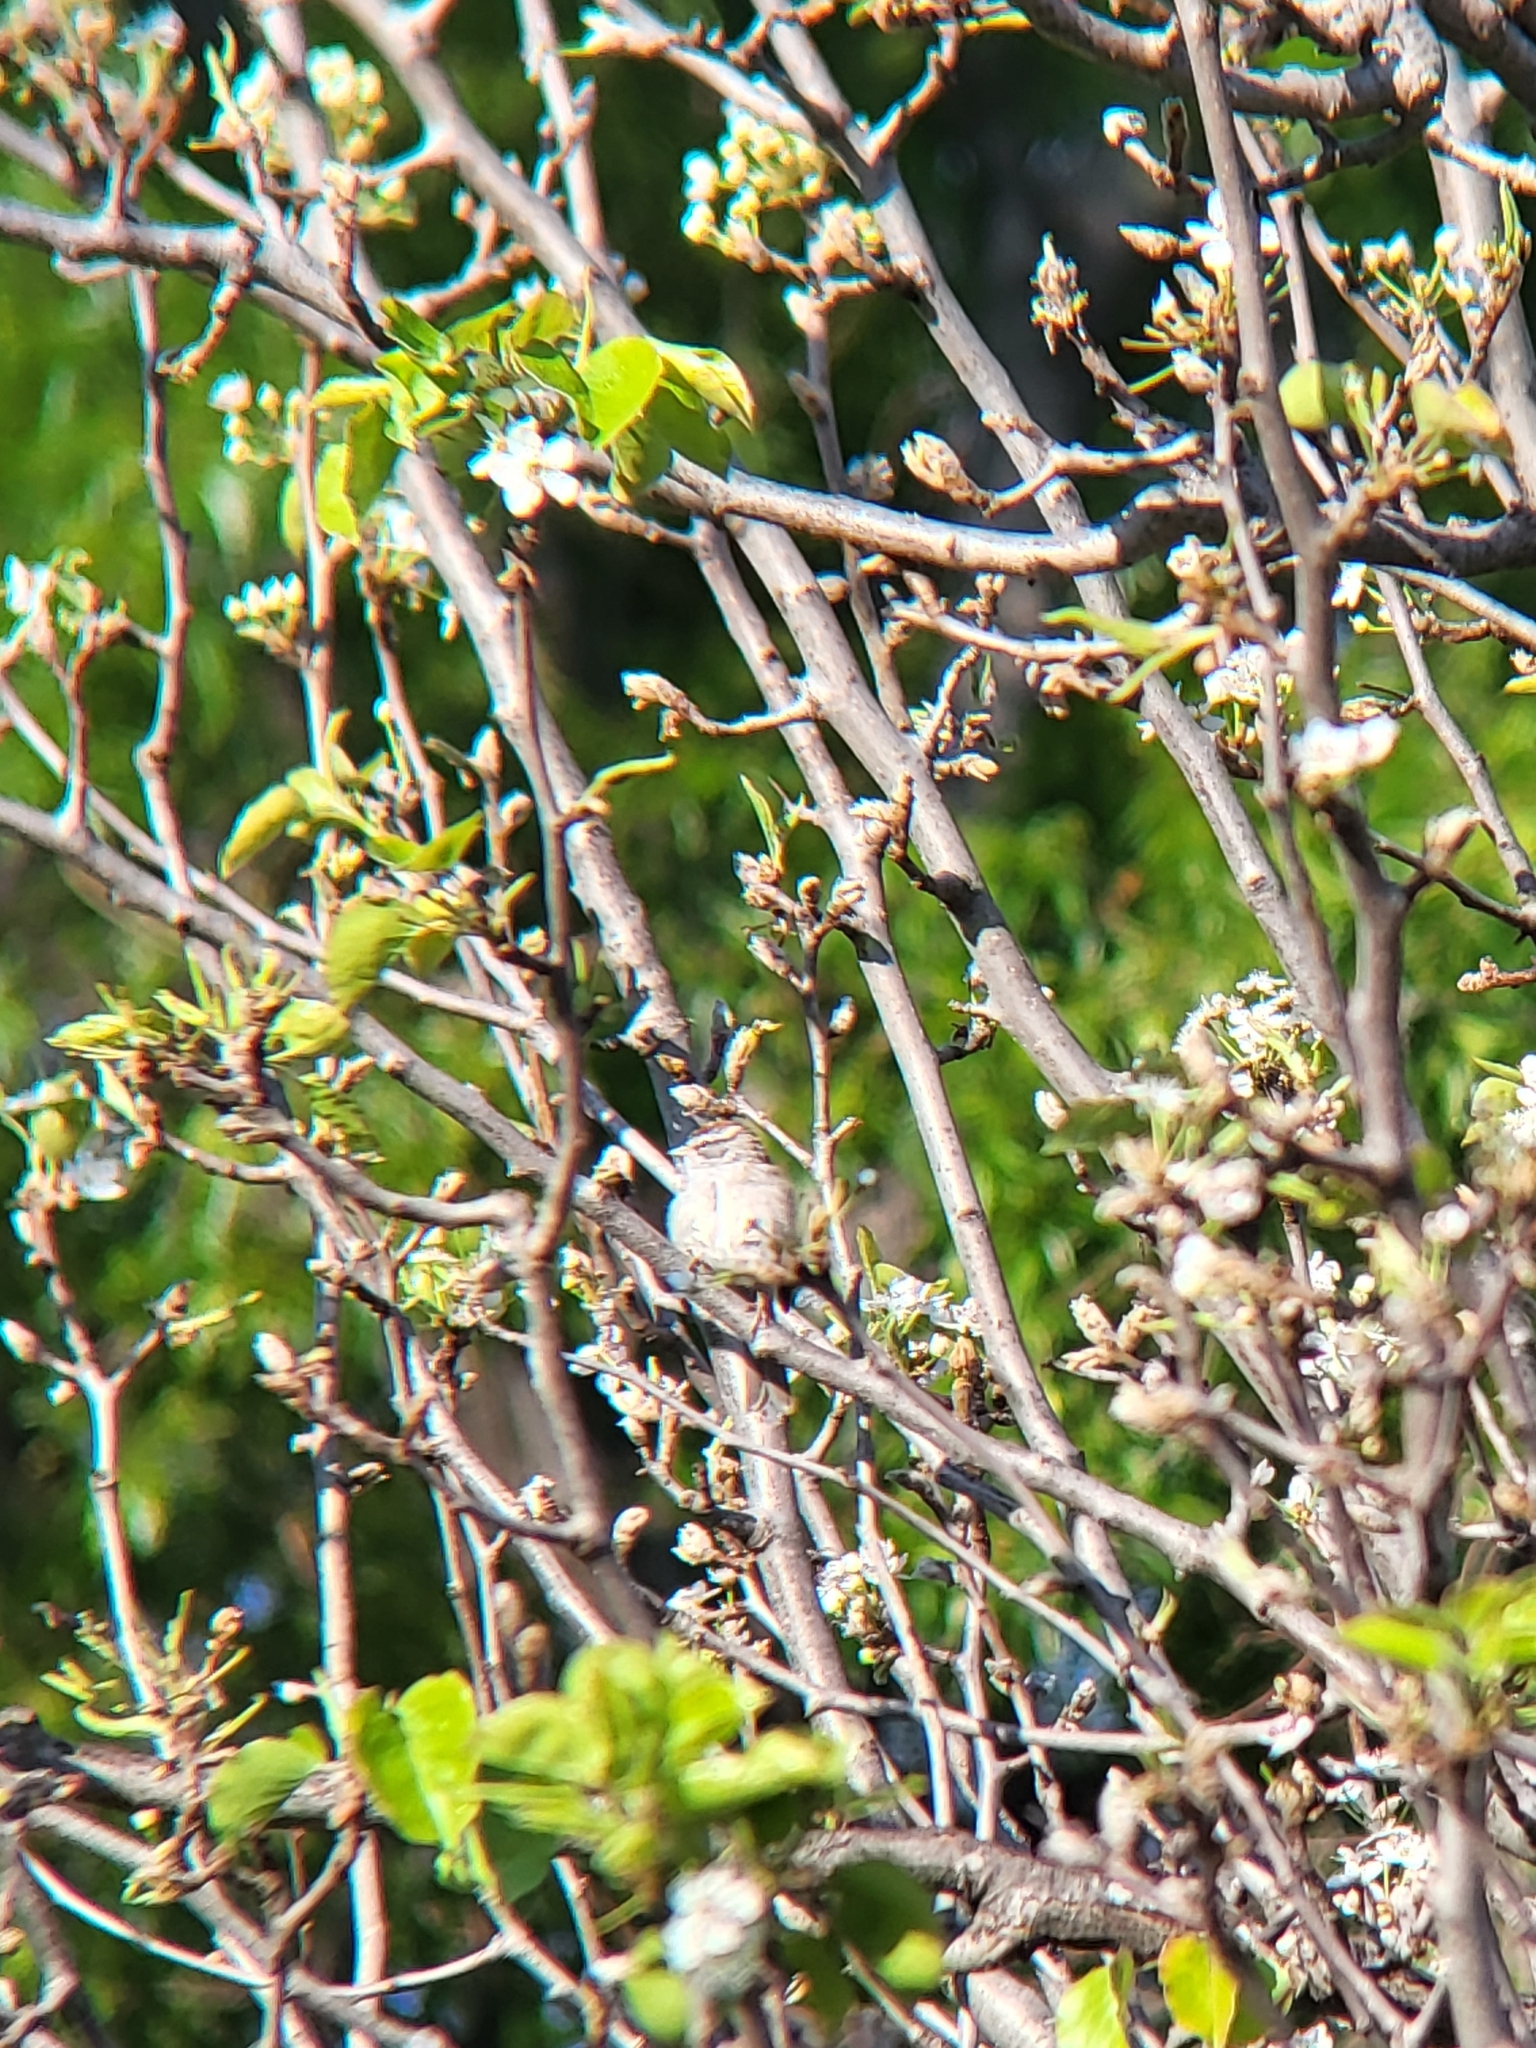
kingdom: Animalia
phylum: Chordata
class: Aves
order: Passeriformes
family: Passerellidae
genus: Spizella
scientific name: Spizella passerina
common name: Chipping sparrow
